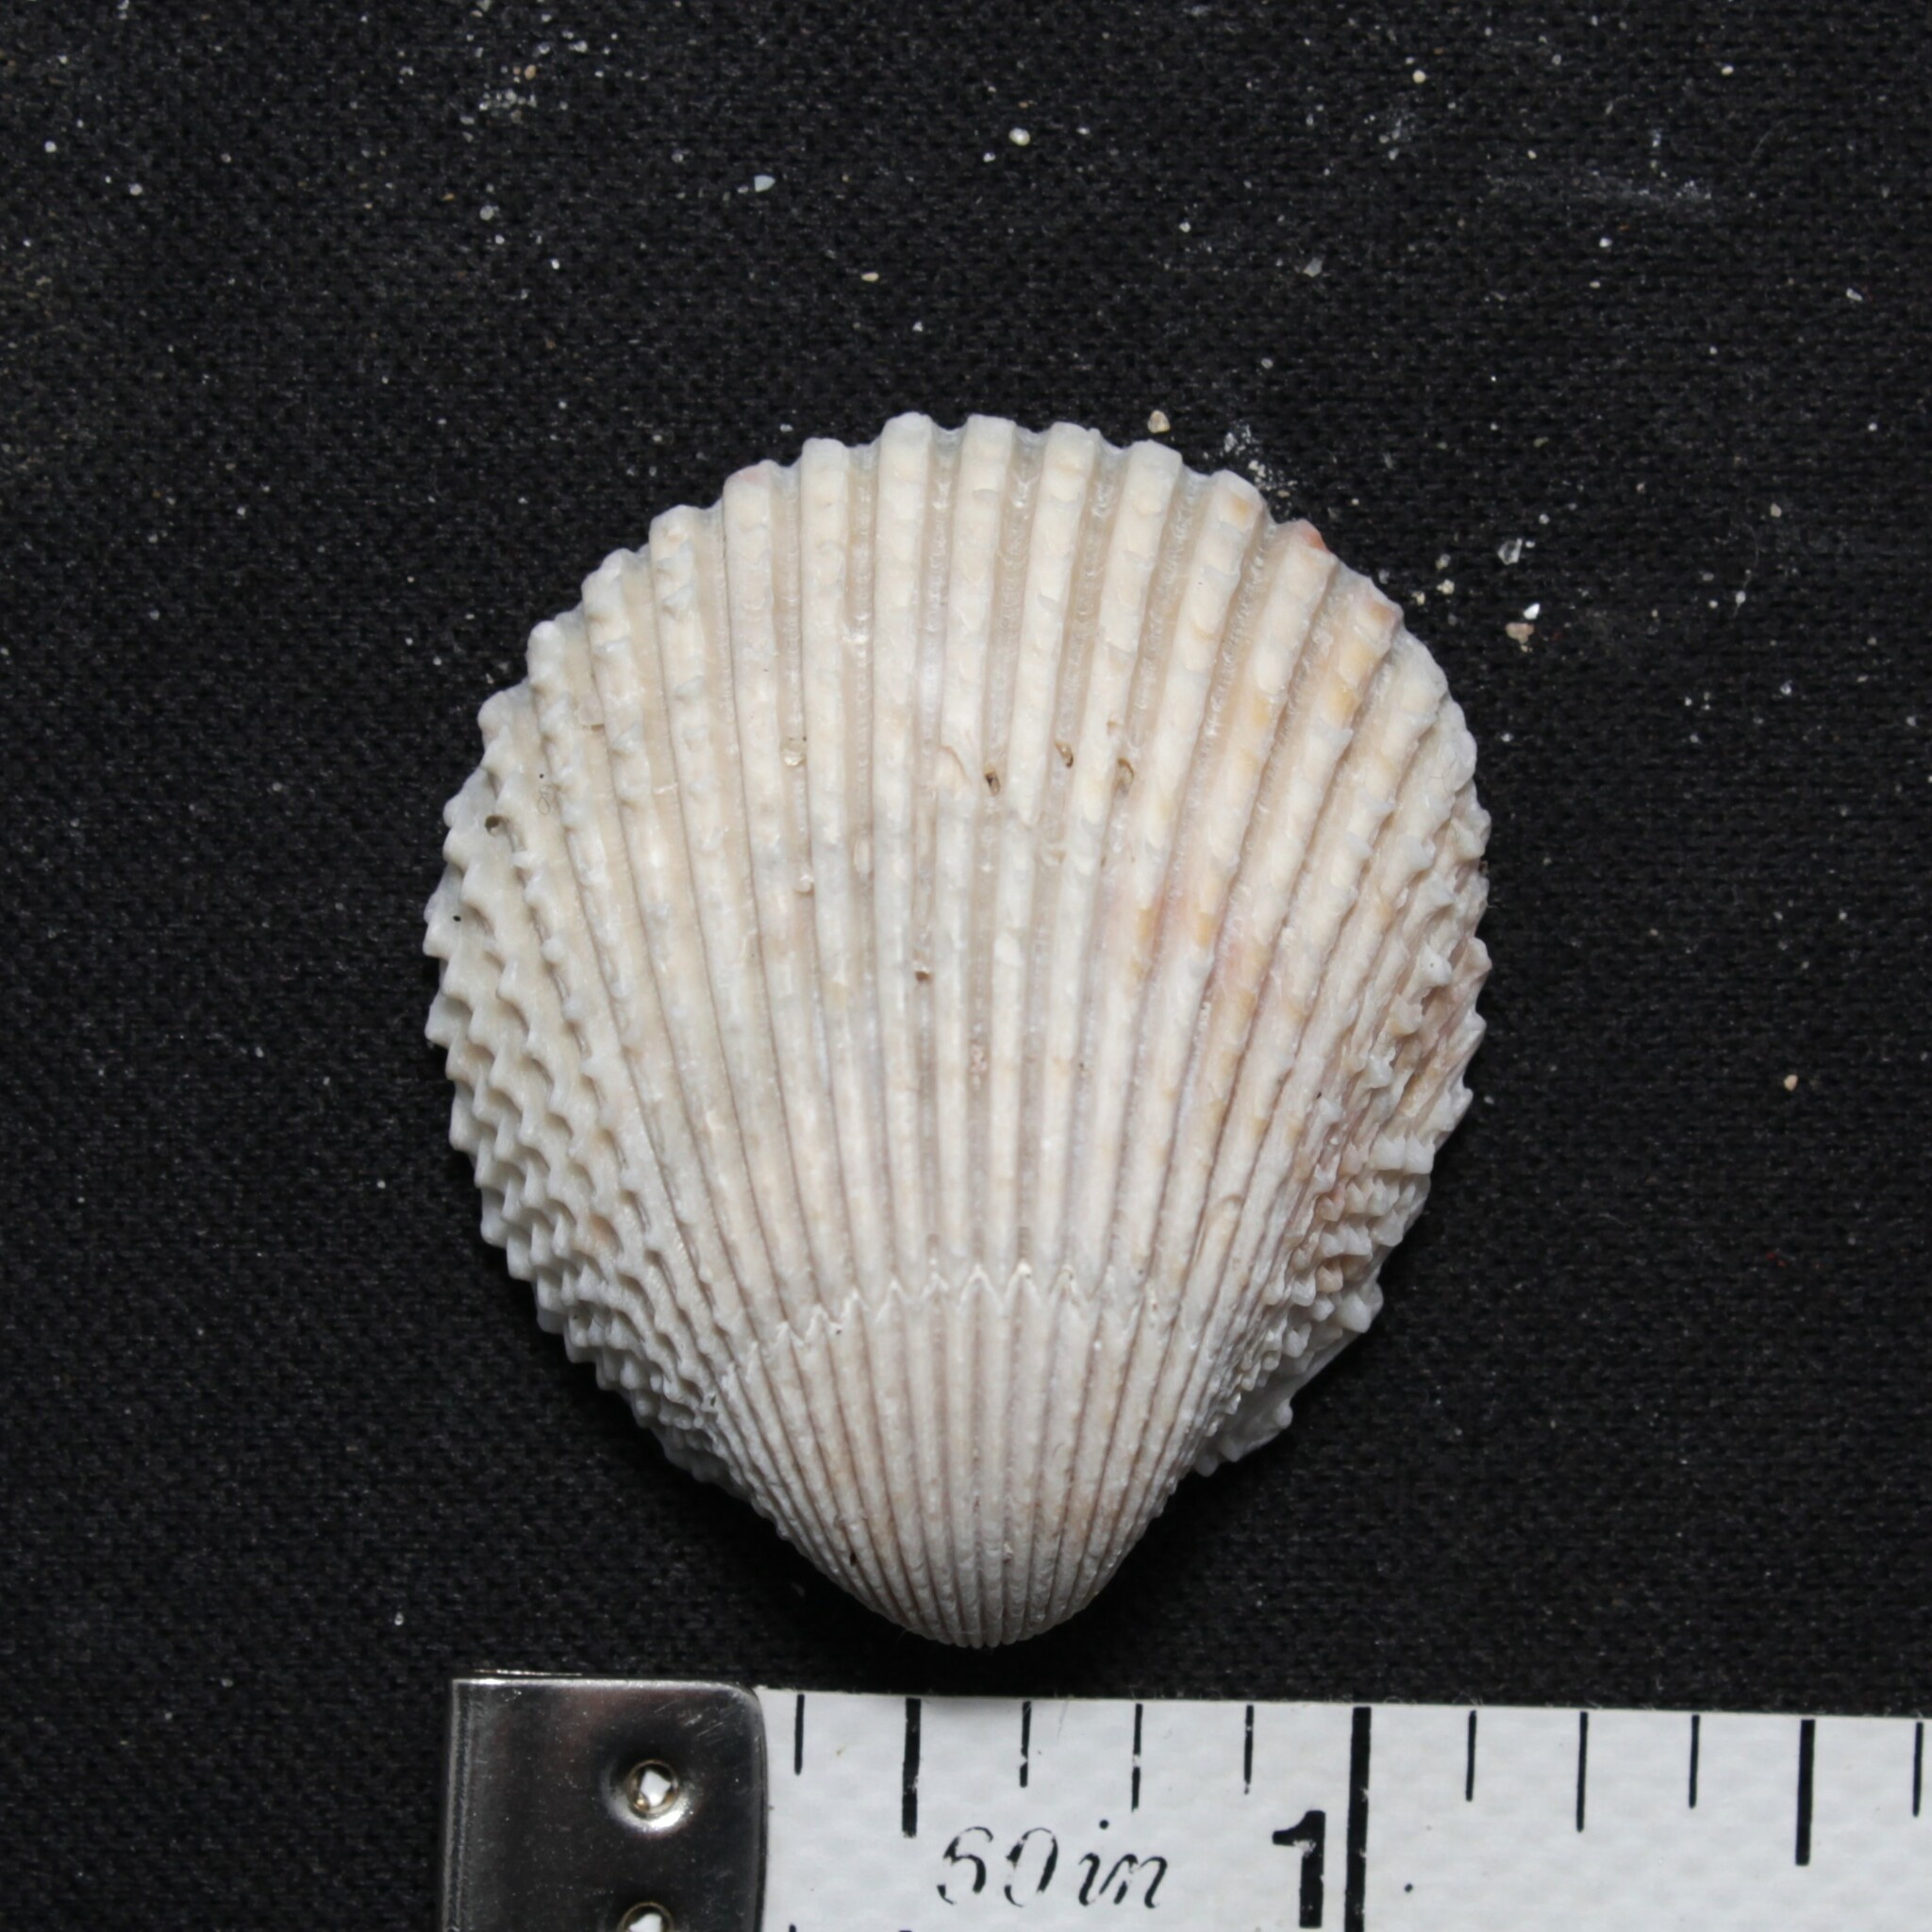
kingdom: Animalia
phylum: Mollusca
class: Bivalvia
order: Cardiida
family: Cardiidae
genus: Trachycardium
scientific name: Trachycardium egmontianum
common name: Florida pricklycockle
